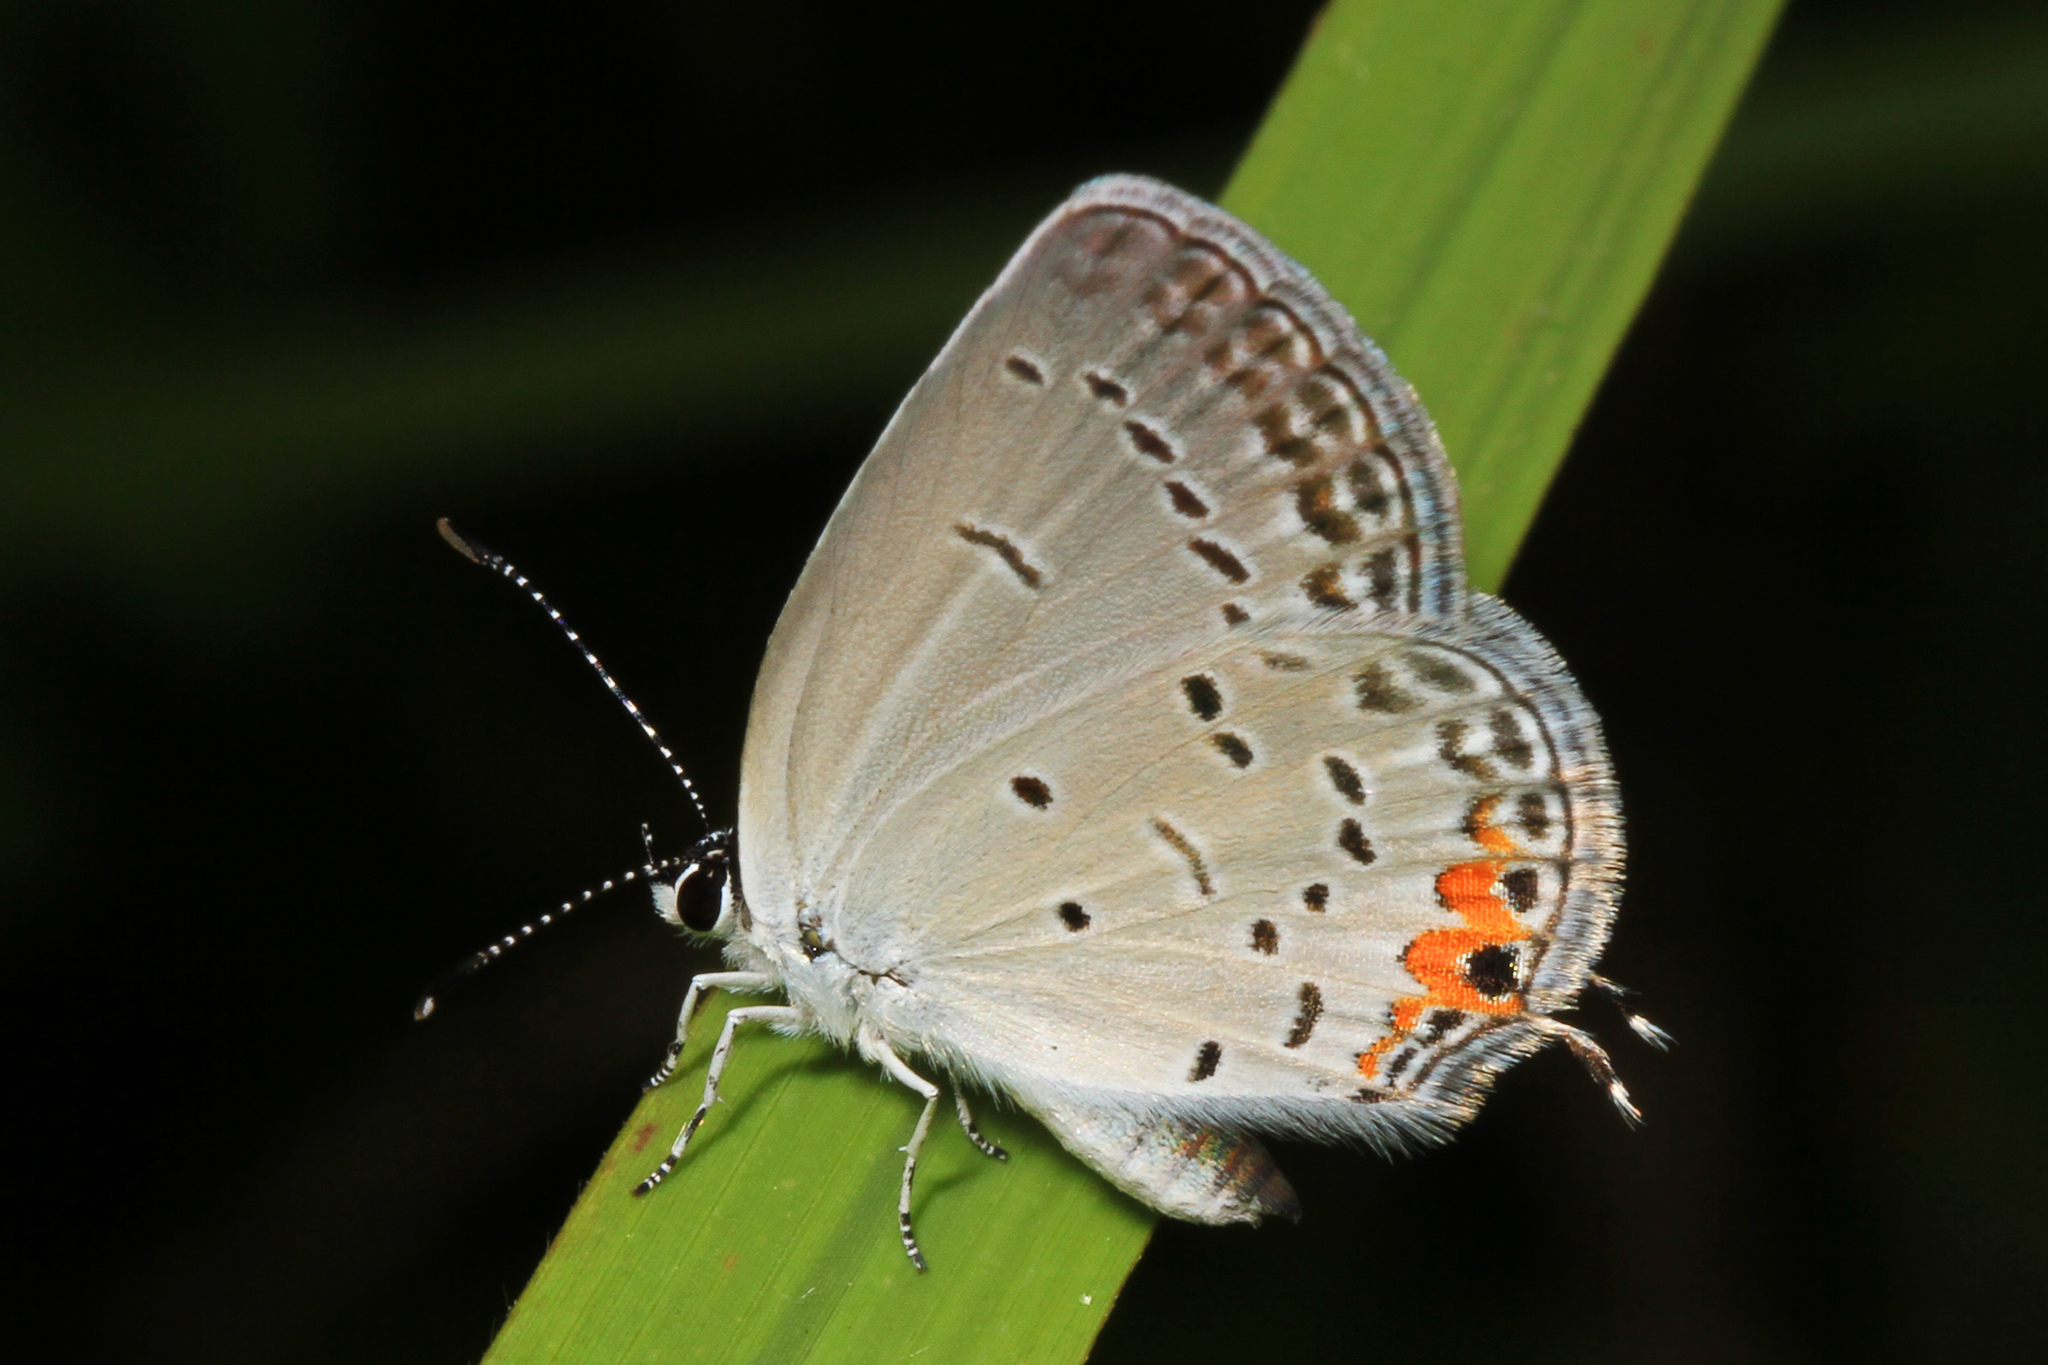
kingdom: Animalia
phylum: Arthropoda
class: Insecta
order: Lepidoptera
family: Lycaenidae
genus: Elkalyce
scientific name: Elkalyce comyntas
